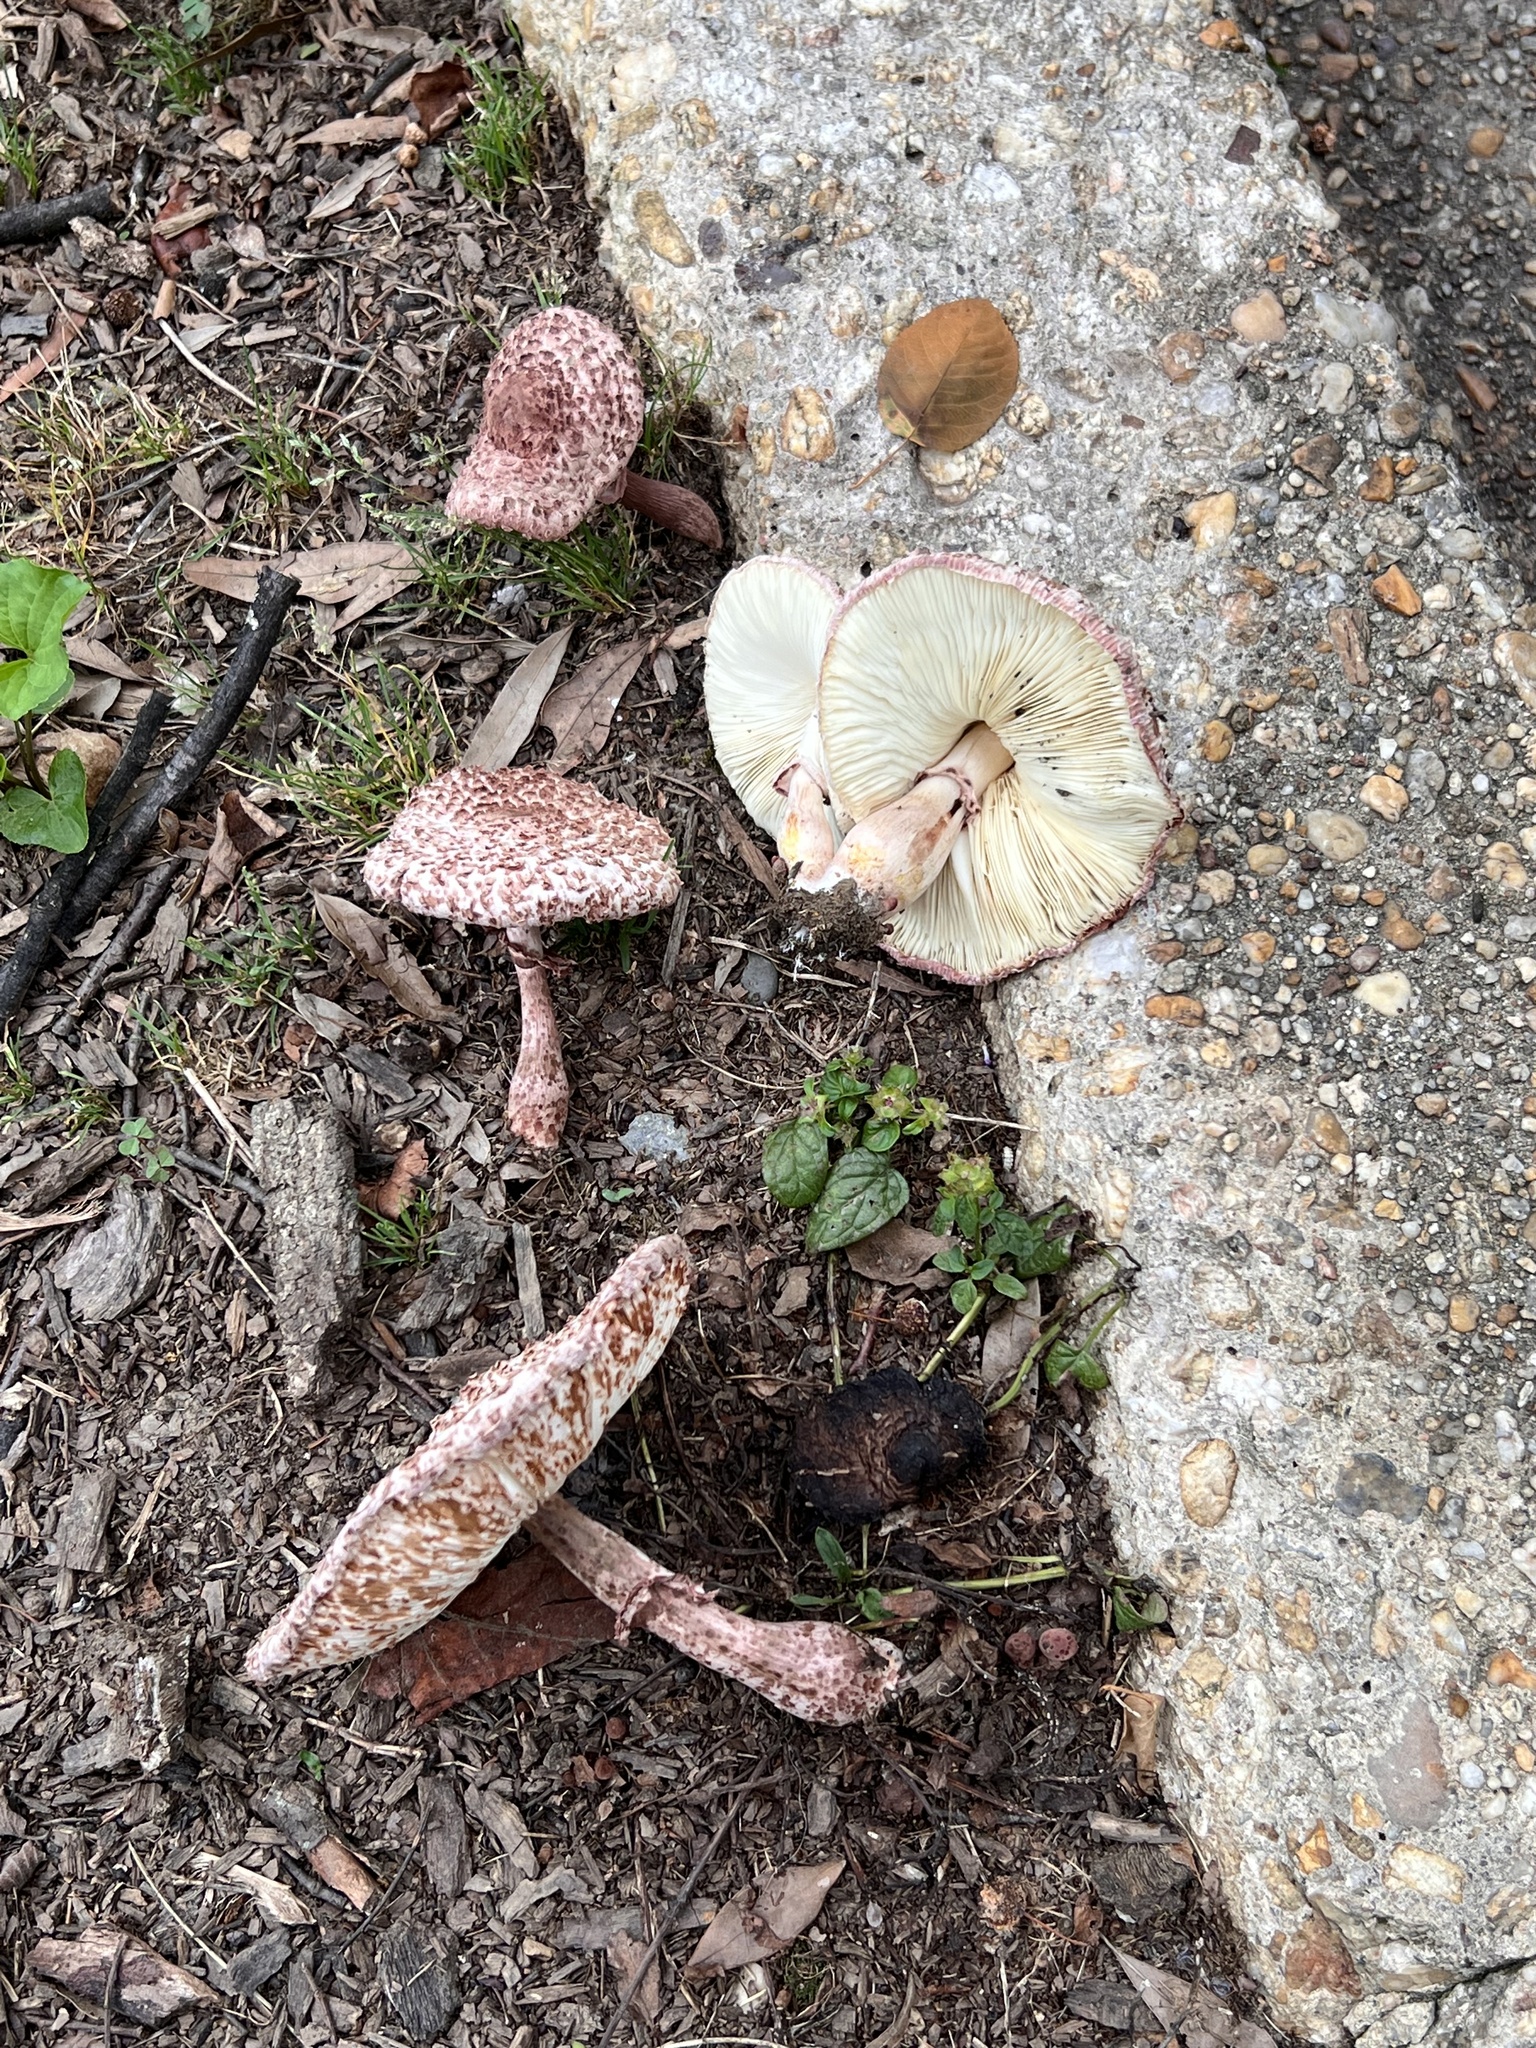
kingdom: Fungi
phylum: Basidiomycota
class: Agaricomycetes
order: Agaricales
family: Agaricaceae
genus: Leucoagaricus
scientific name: Leucoagaricus americanus
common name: Reddening lepiota
